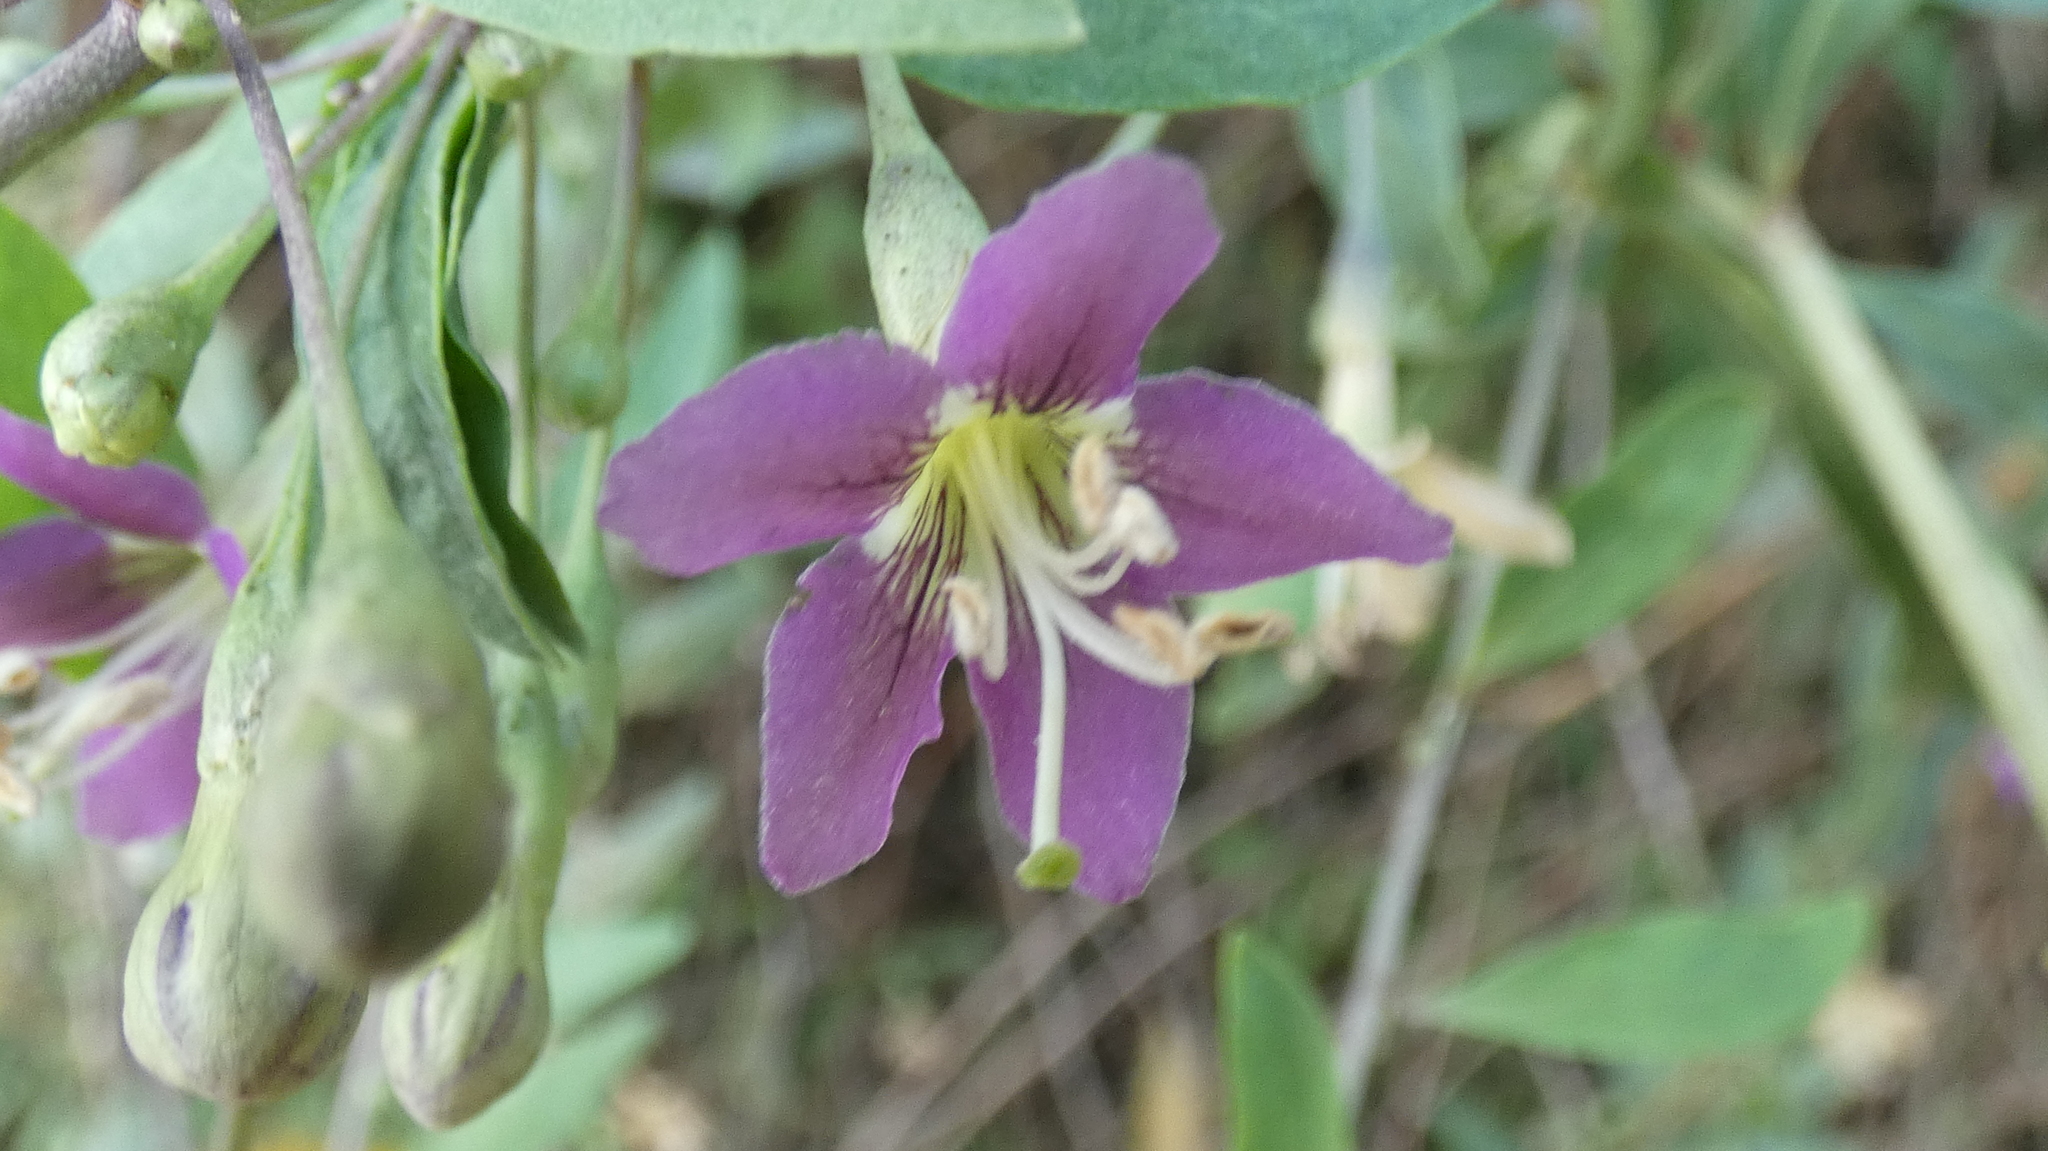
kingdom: Plantae
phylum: Tracheophyta
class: Magnoliopsida
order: Solanales
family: Solanaceae
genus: Lycium
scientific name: Lycium barbarum
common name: Duke of argyll's teaplant
